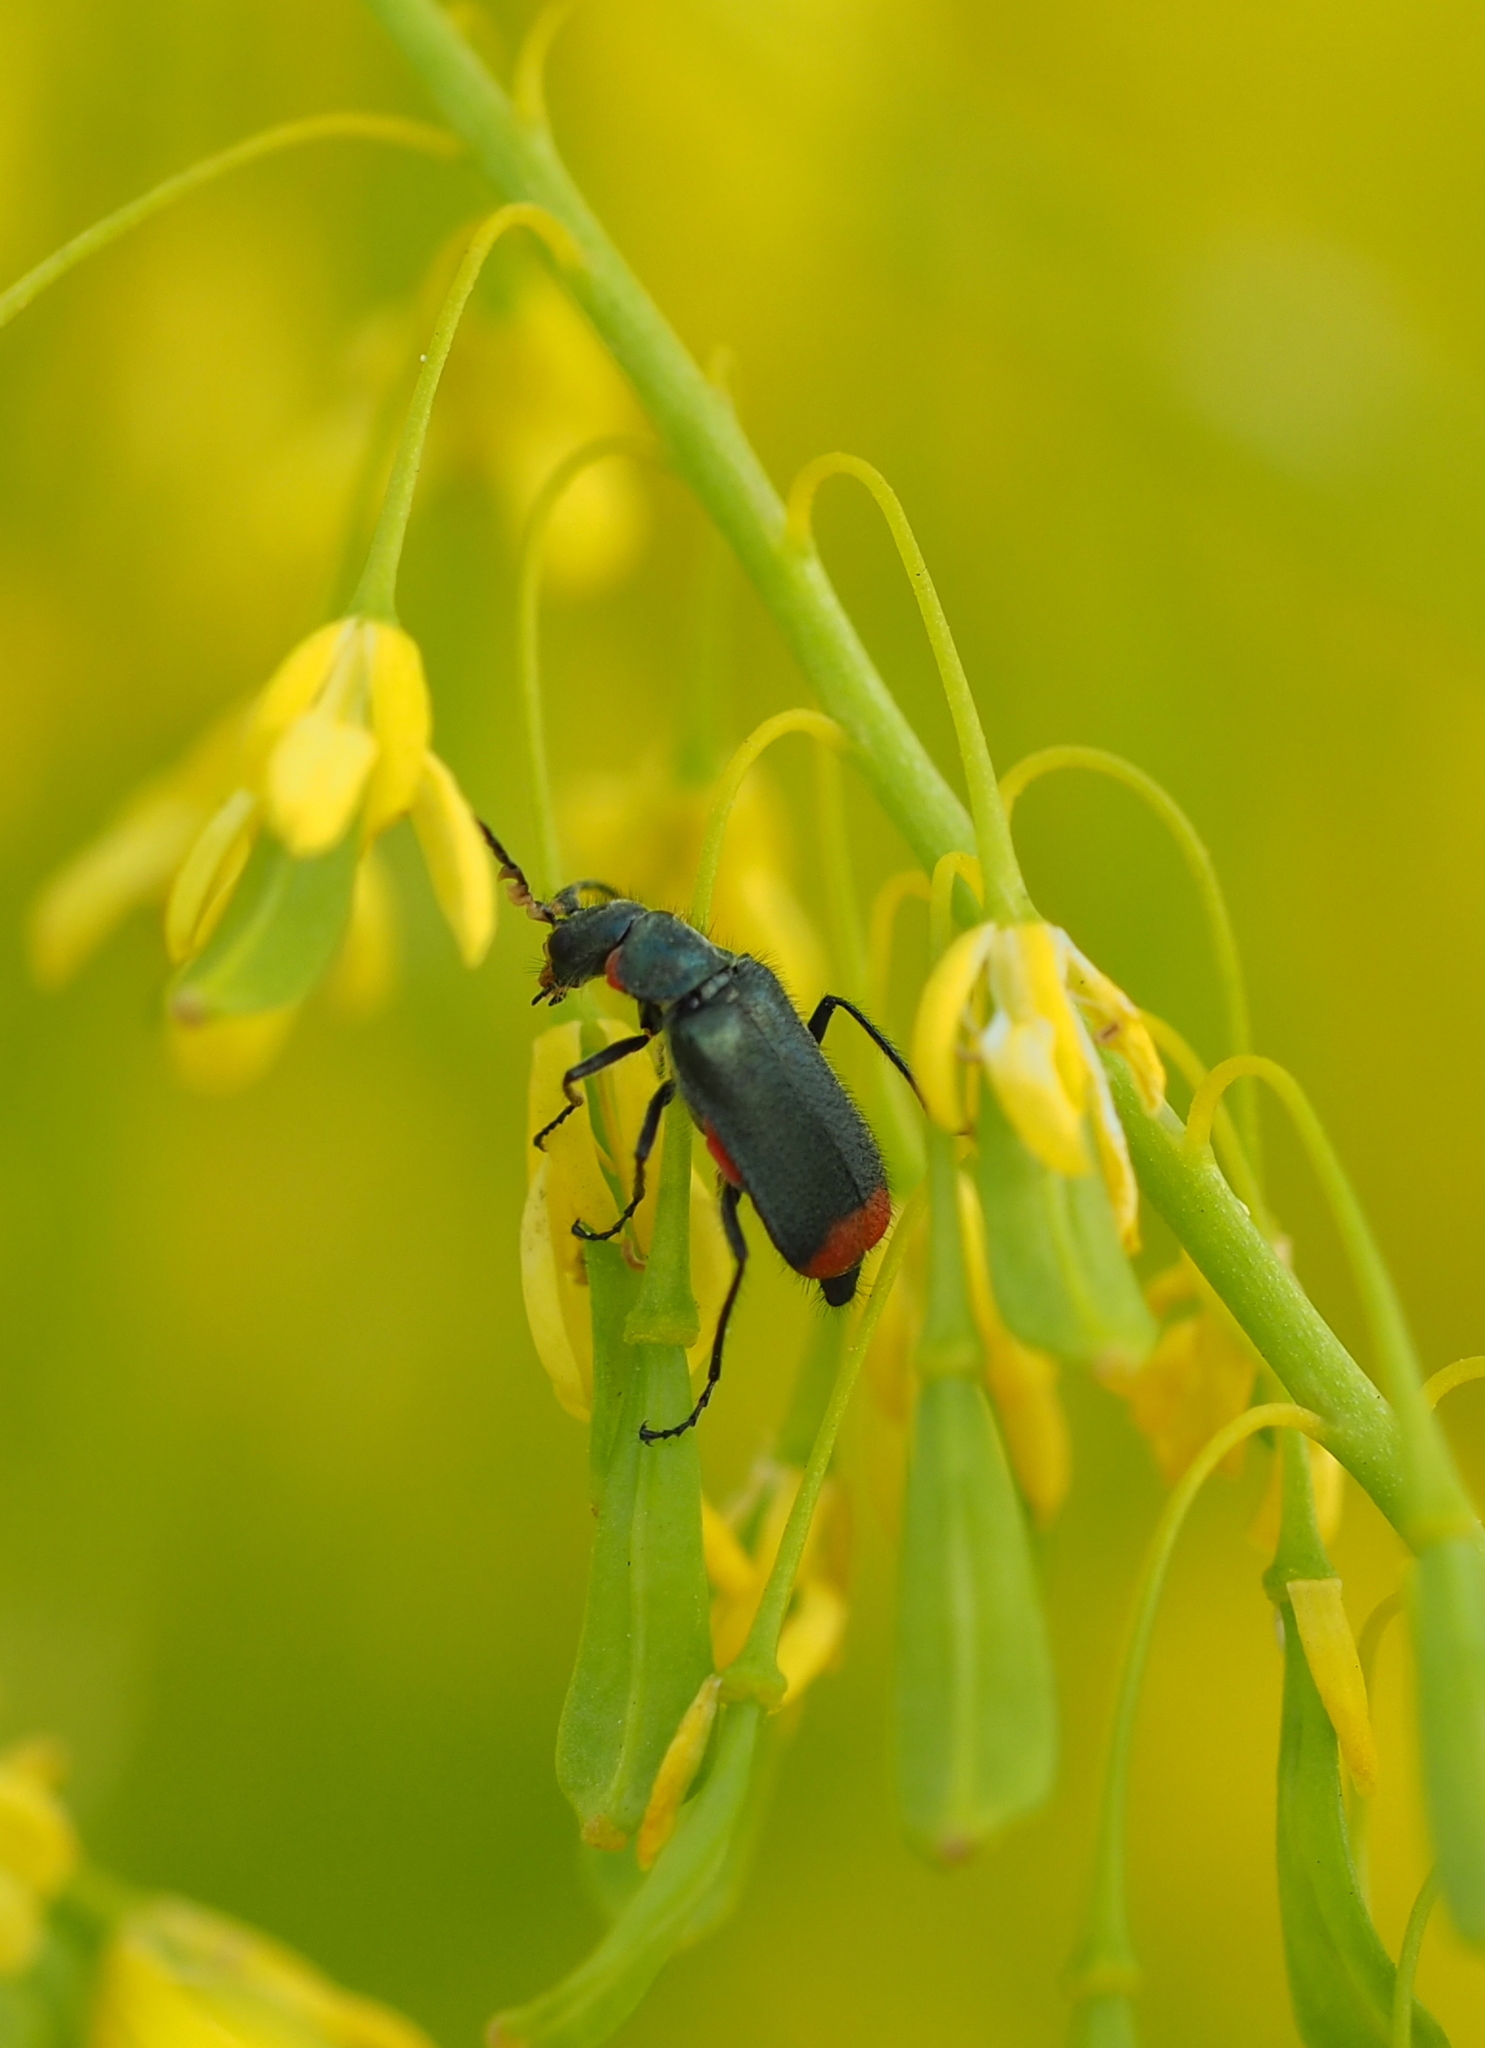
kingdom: Animalia
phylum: Arthropoda
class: Insecta
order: Coleoptera
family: Melyridae
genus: Malachius
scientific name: Malachius bipustulatus
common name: Malachite beetle
